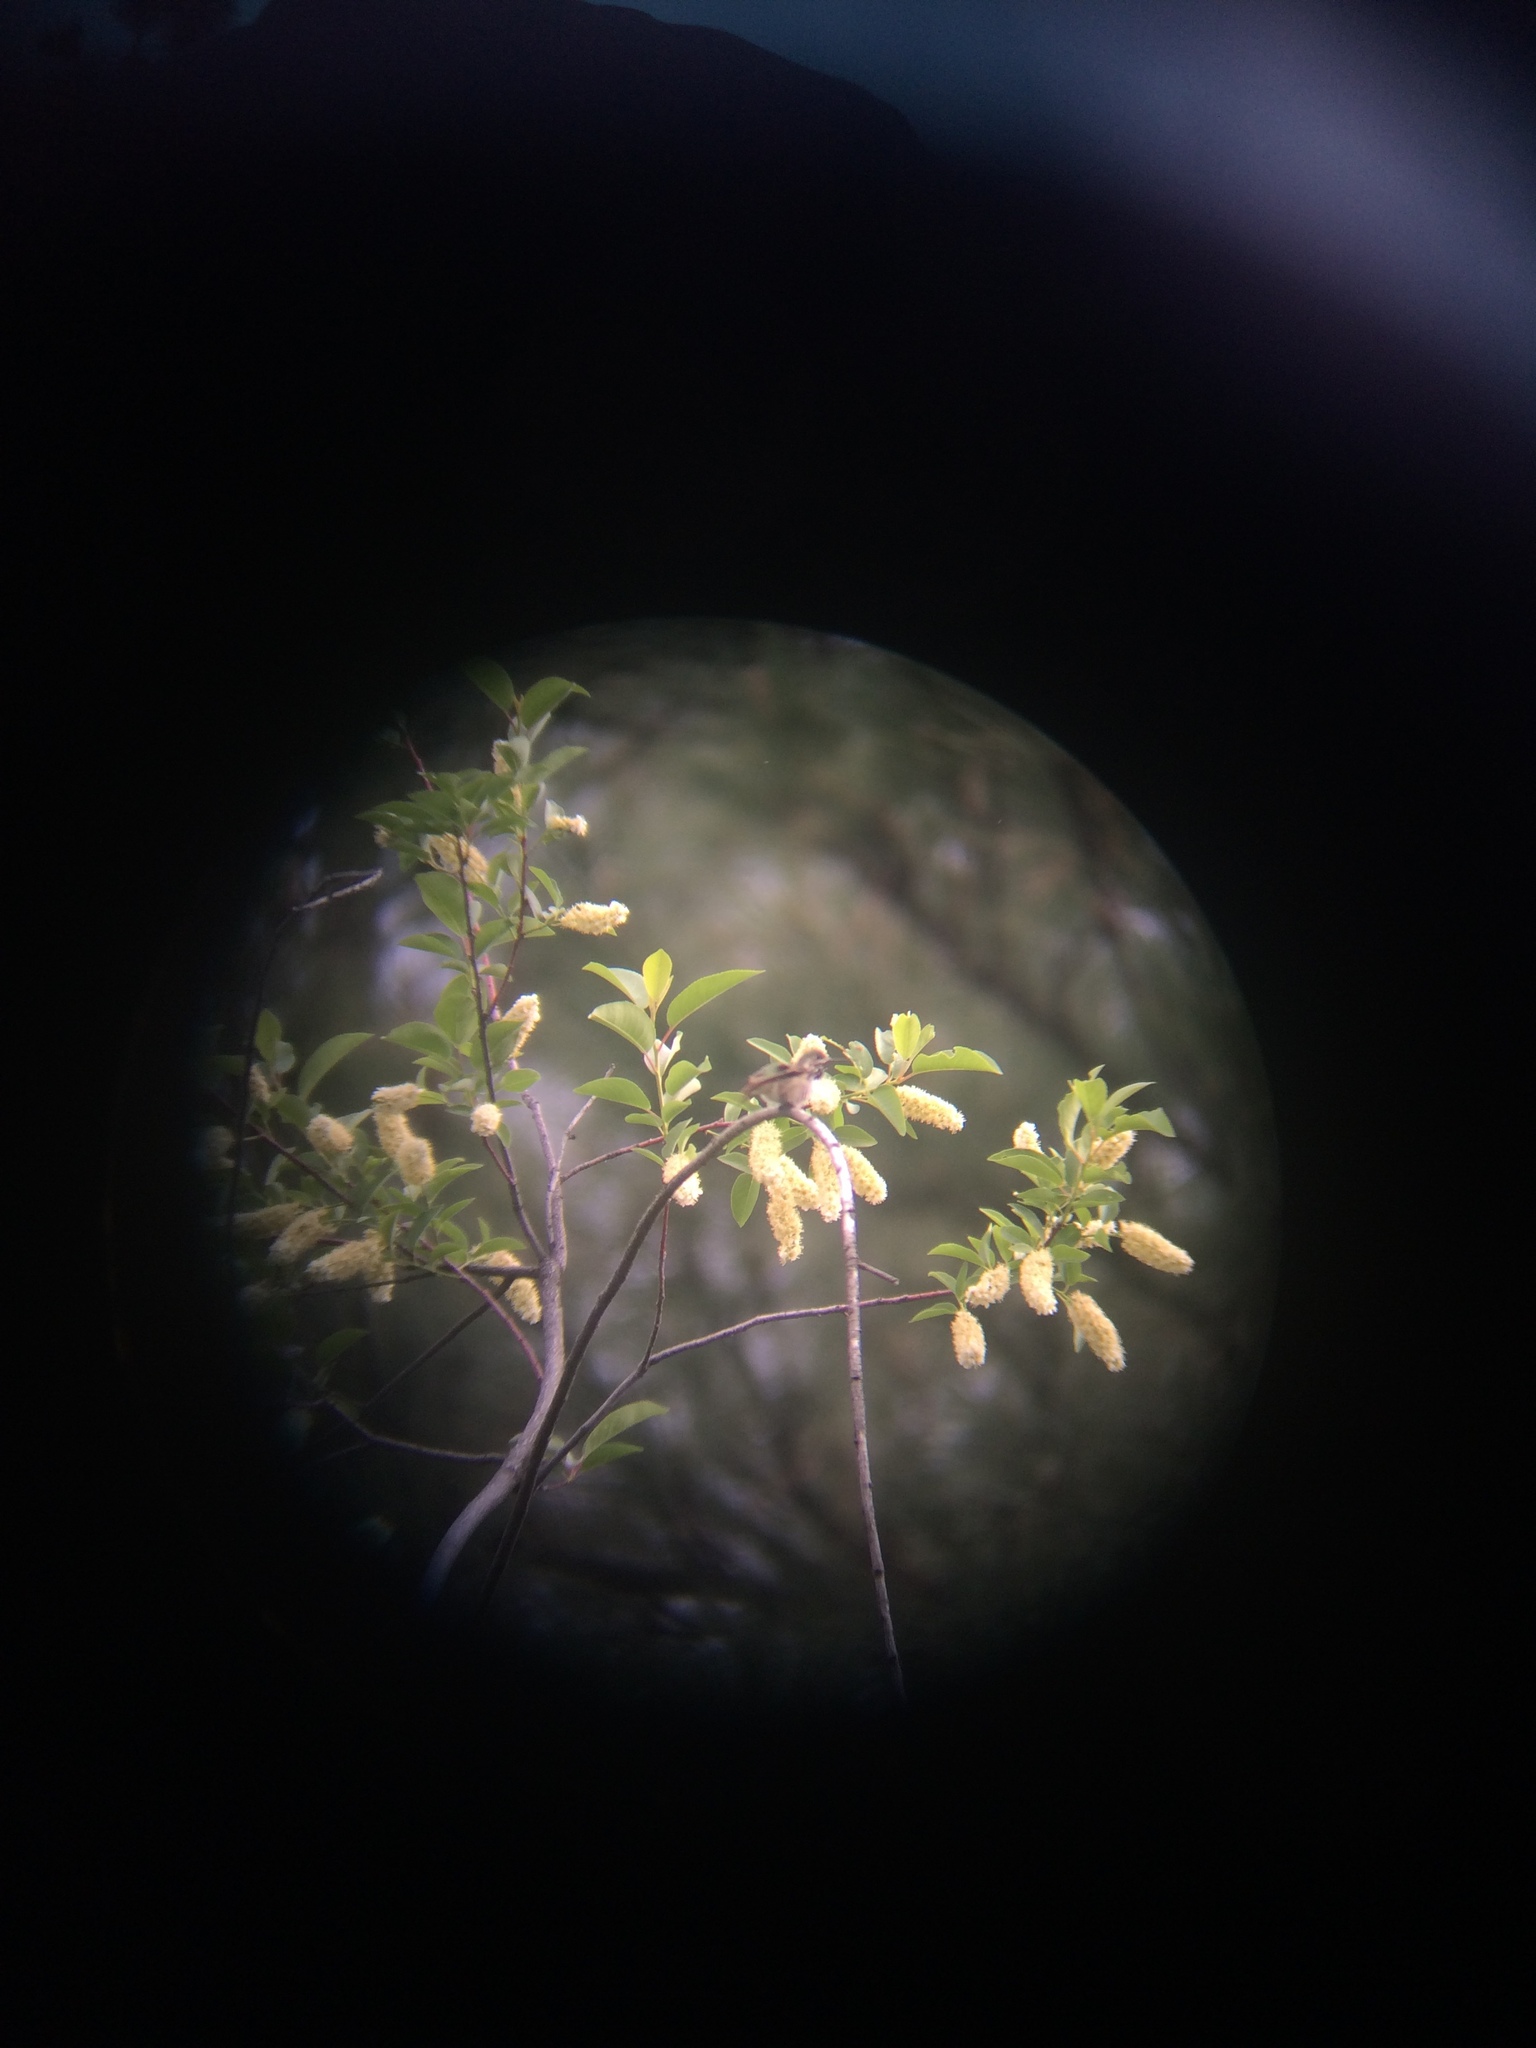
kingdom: Animalia
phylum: Chordata
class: Aves
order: Apodiformes
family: Trochilidae
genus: Selasphorus
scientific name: Selasphorus calliope
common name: Calliope hummingbird
